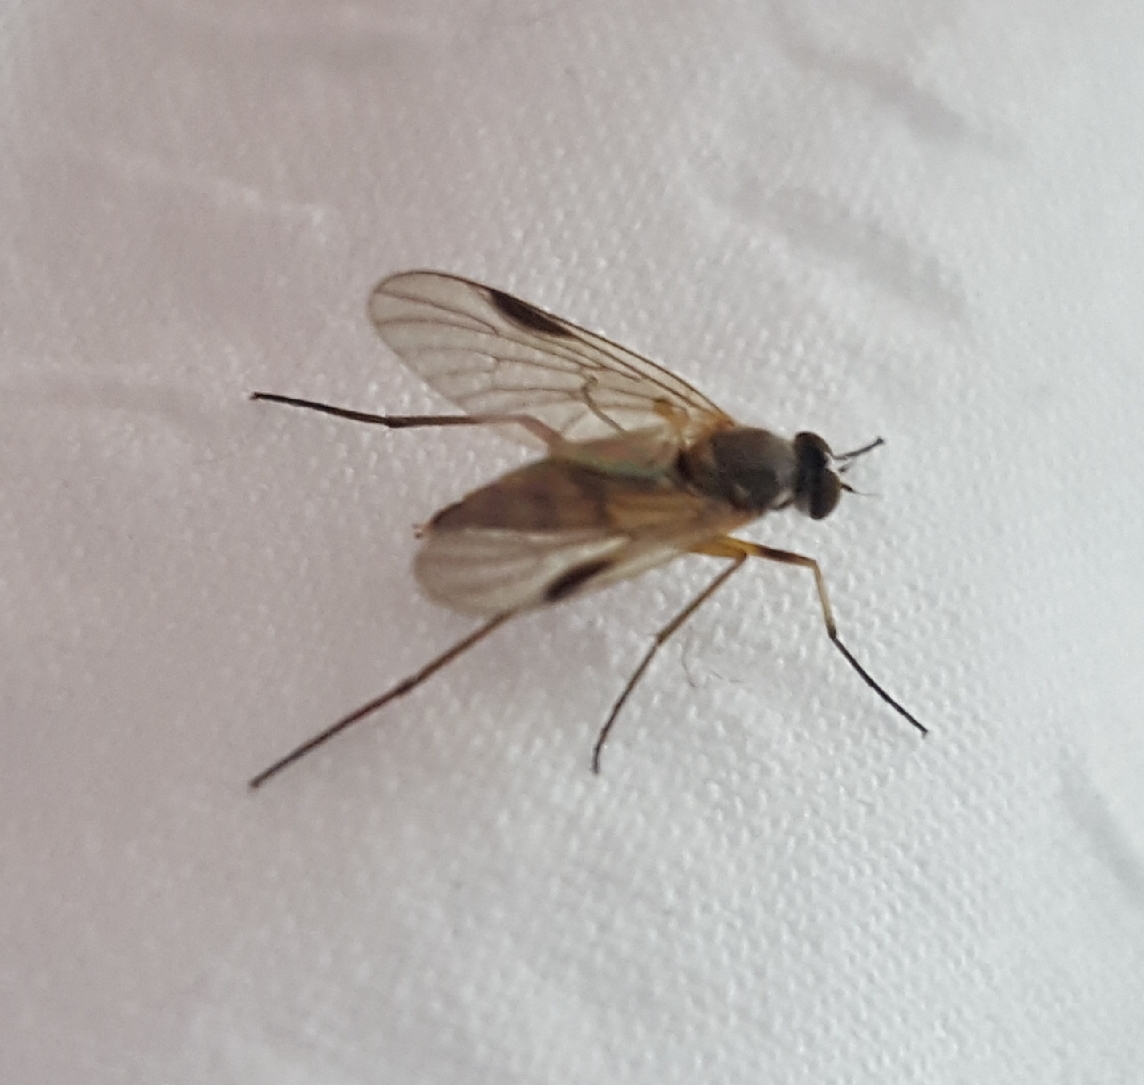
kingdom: Animalia
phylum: Arthropoda
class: Insecta
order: Diptera
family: Rhagionidae
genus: Rhagio
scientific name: Rhagio lineola
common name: Small fleck-winged snipefly
